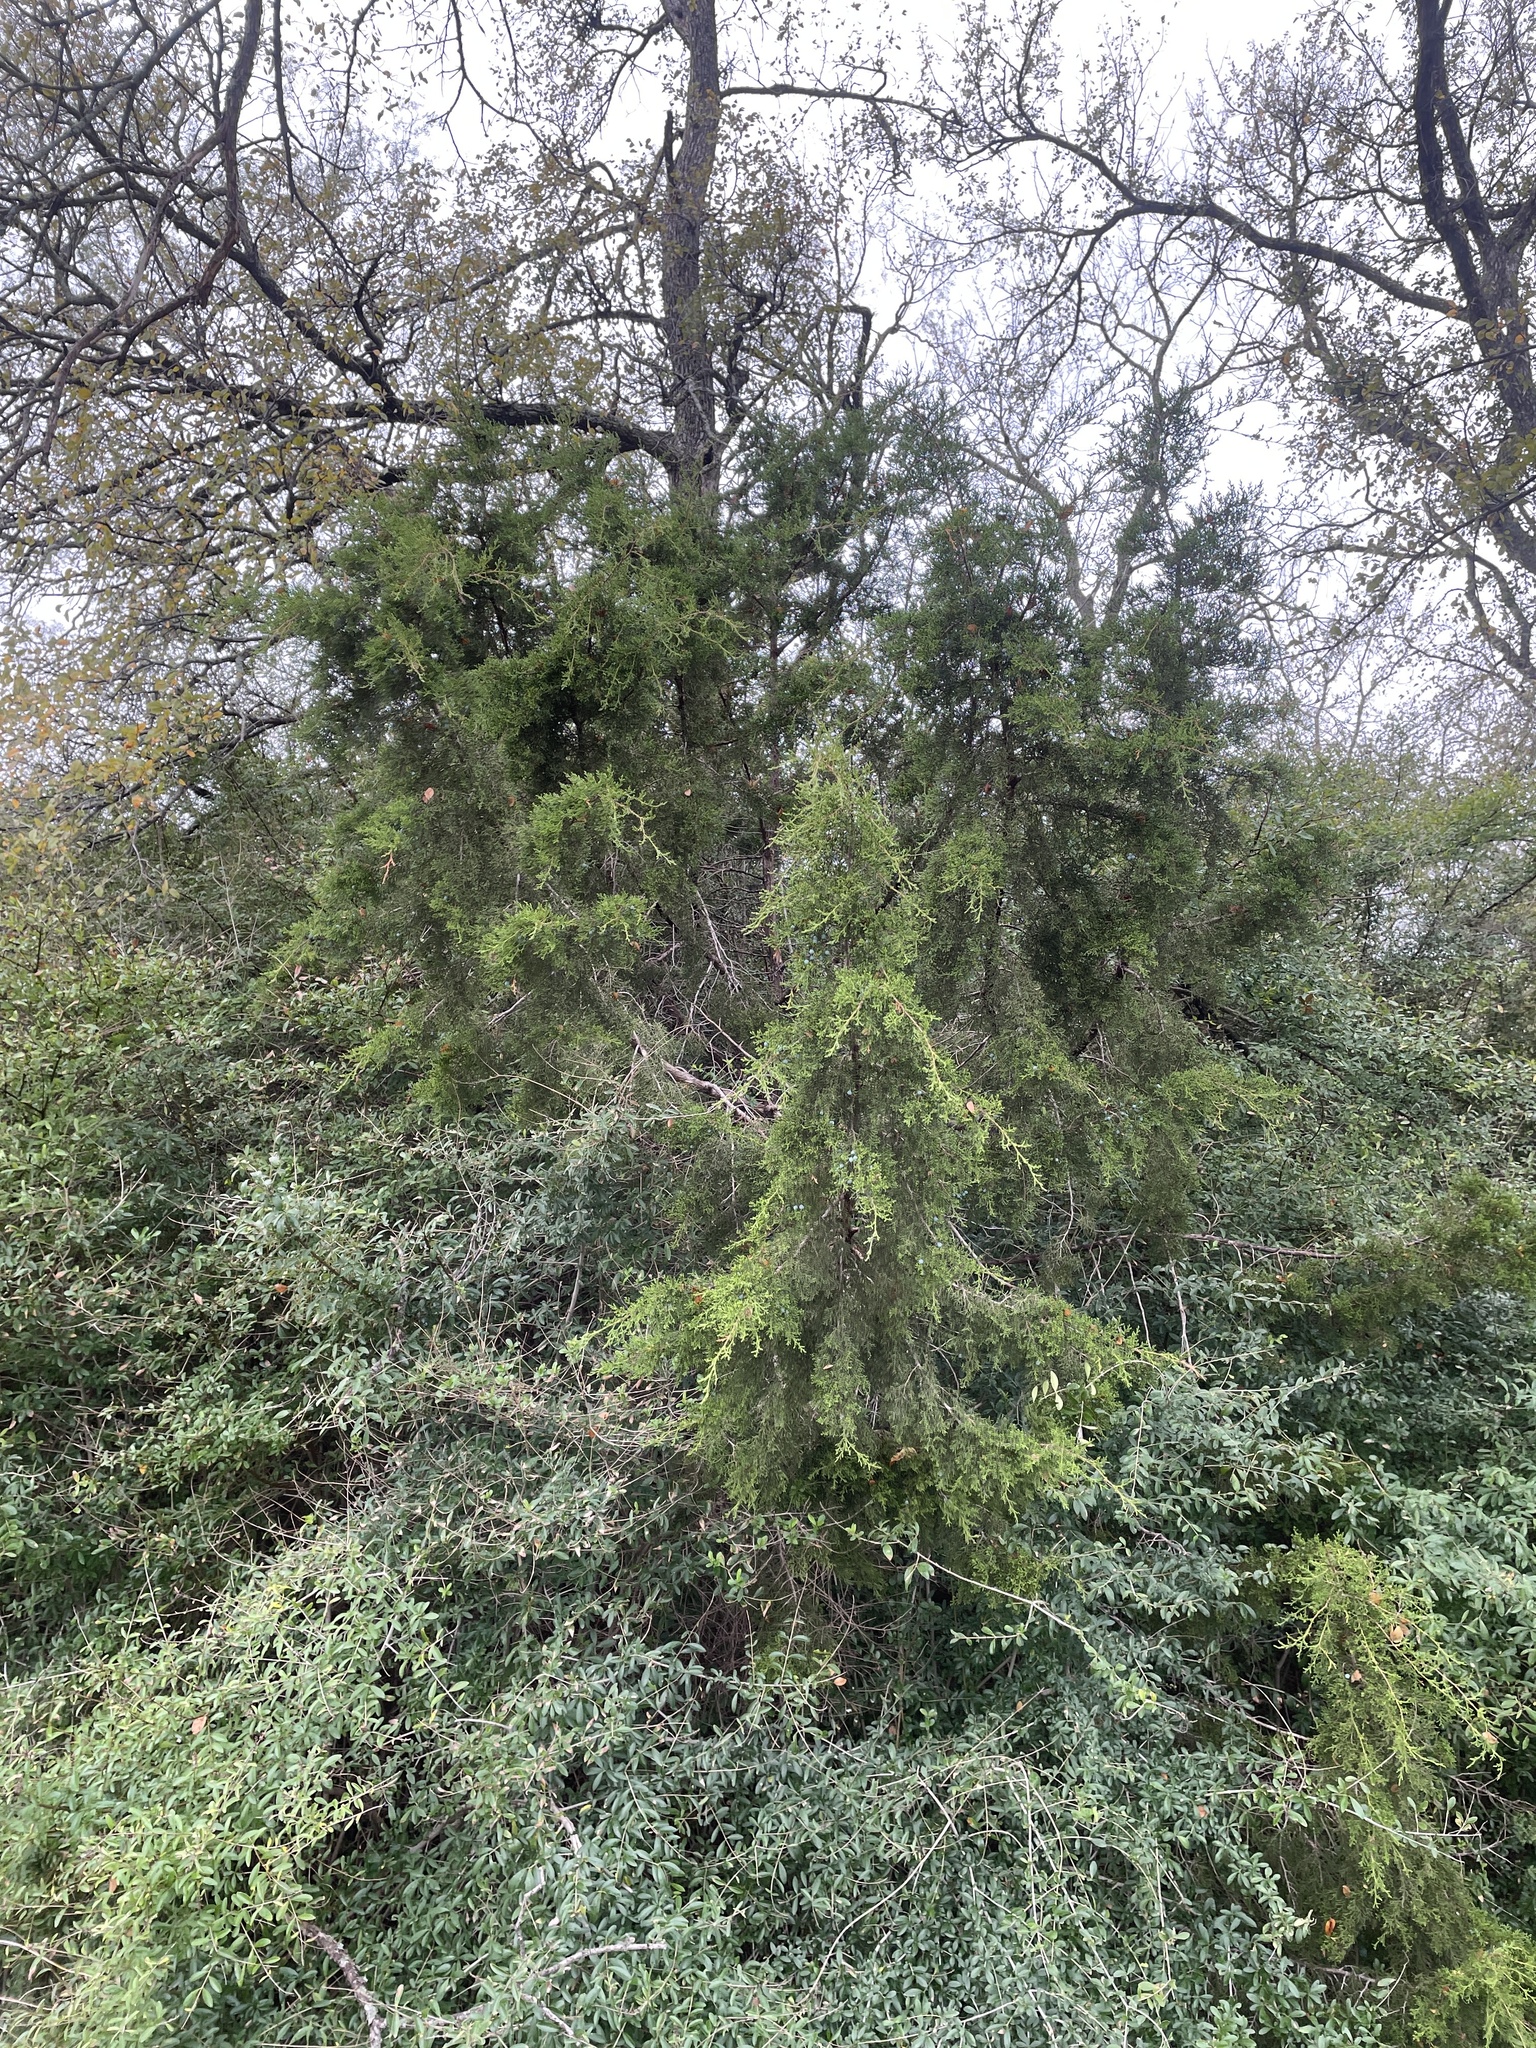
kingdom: Plantae
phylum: Tracheophyta
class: Pinopsida
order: Pinales
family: Cupressaceae
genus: Juniperus
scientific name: Juniperus virginiana
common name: Red juniper
